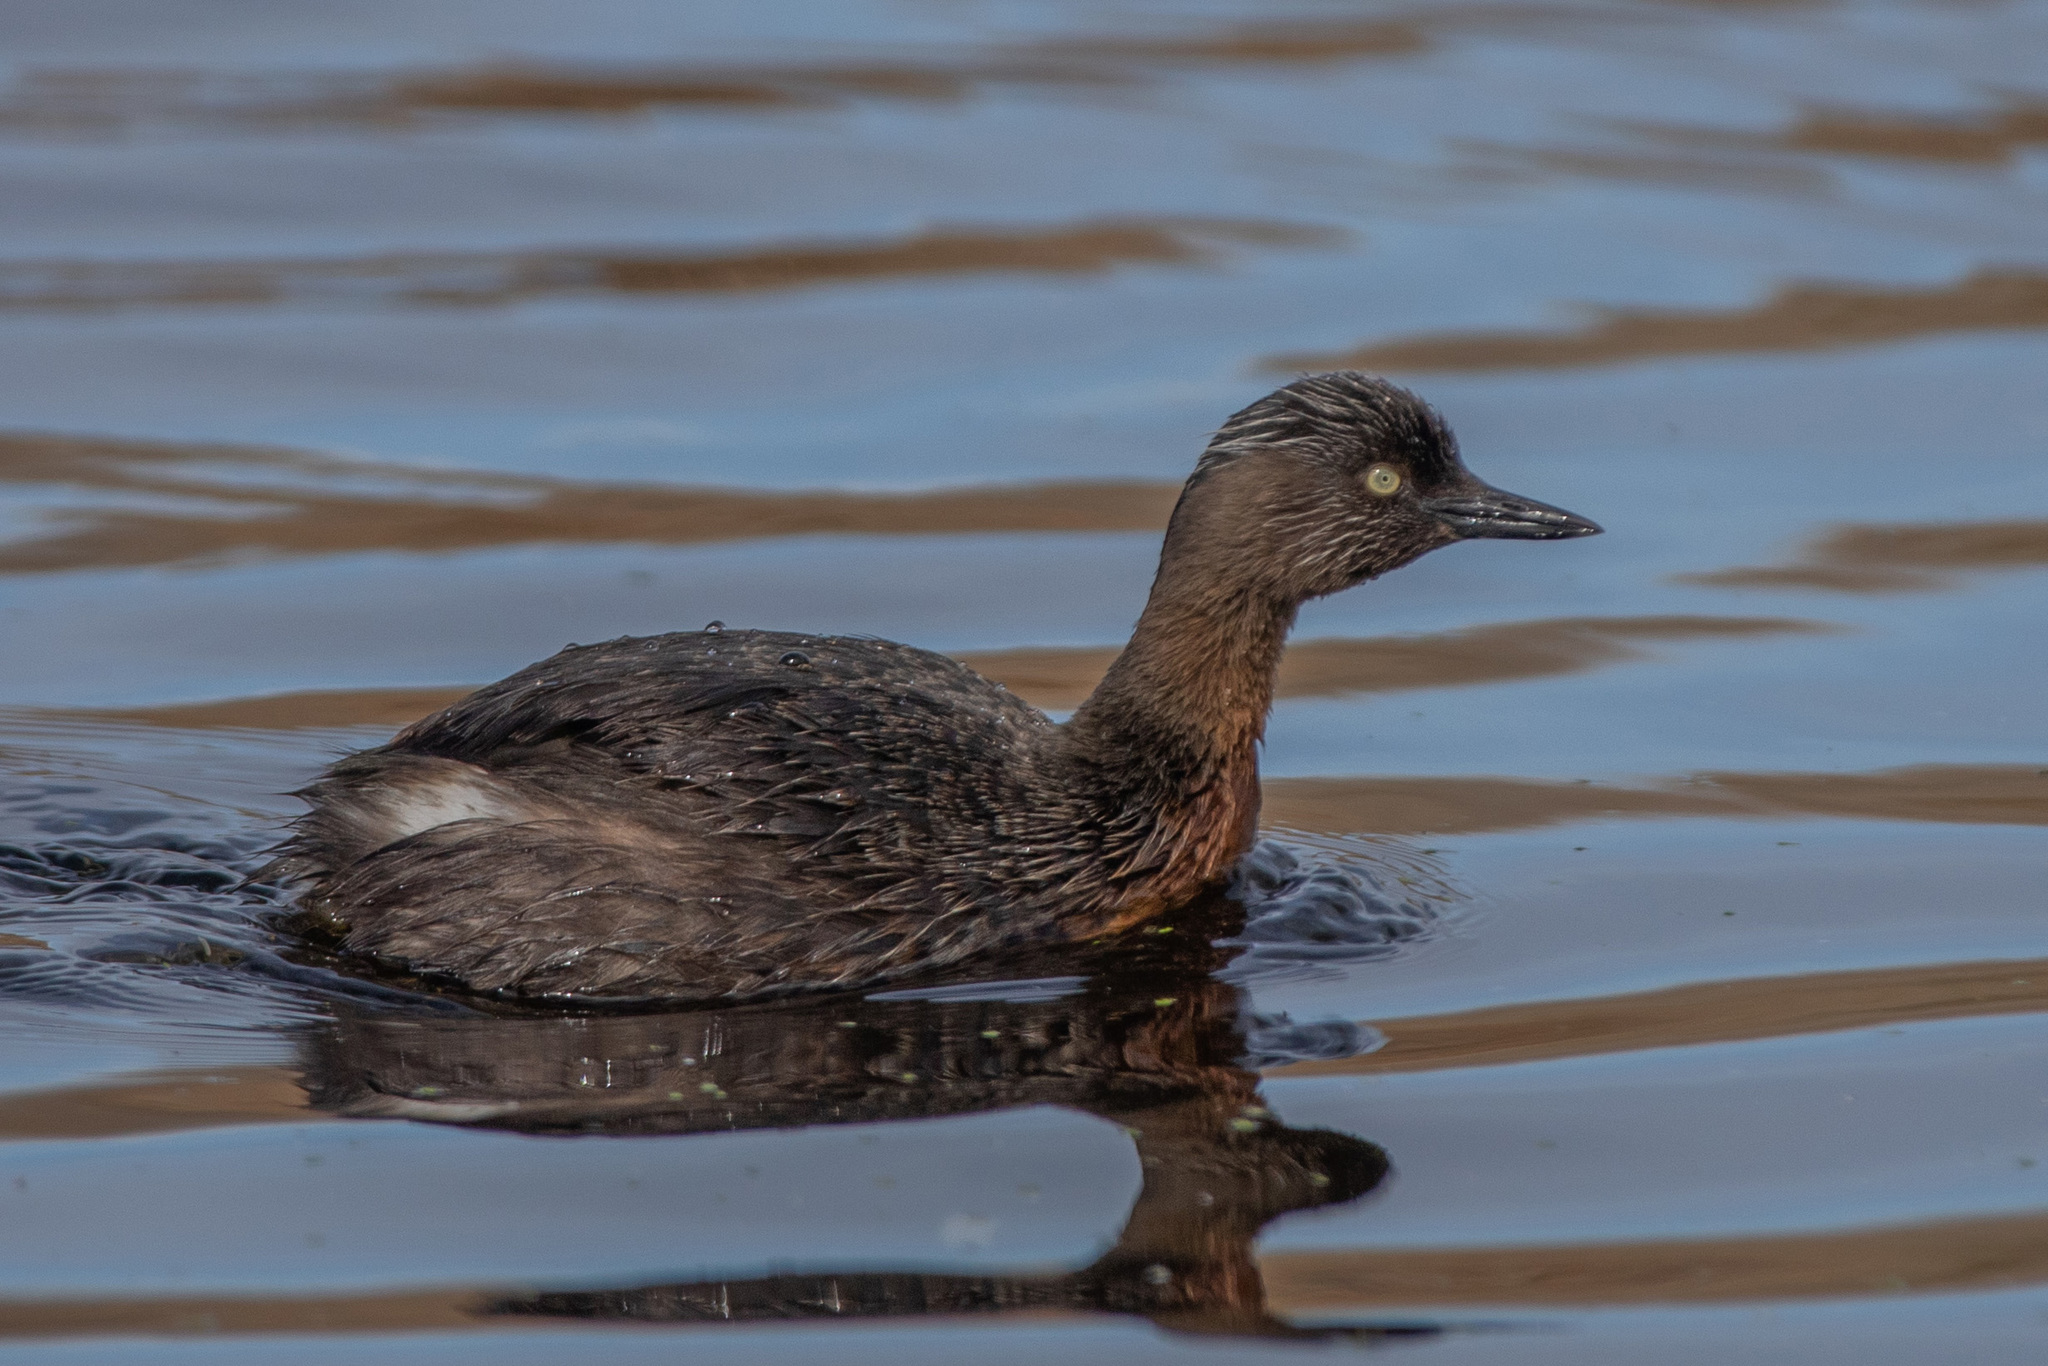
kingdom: Animalia
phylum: Chordata
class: Aves
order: Podicipediformes
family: Podicipedidae
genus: Poliocephalus
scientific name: Poliocephalus rufopectus
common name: New zealand grebe
